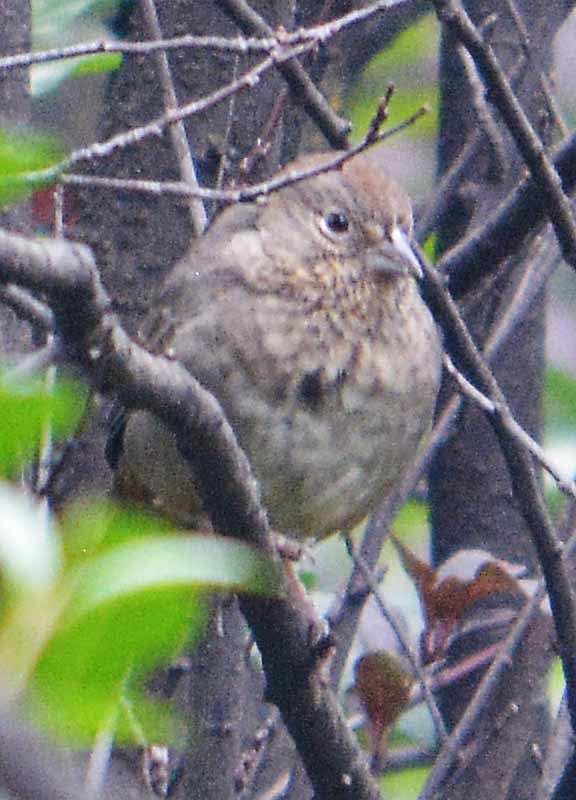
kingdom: Animalia
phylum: Chordata
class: Aves
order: Passeriformes
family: Passerellidae
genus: Melozone
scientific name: Melozone fusca
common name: Canyon towhee
